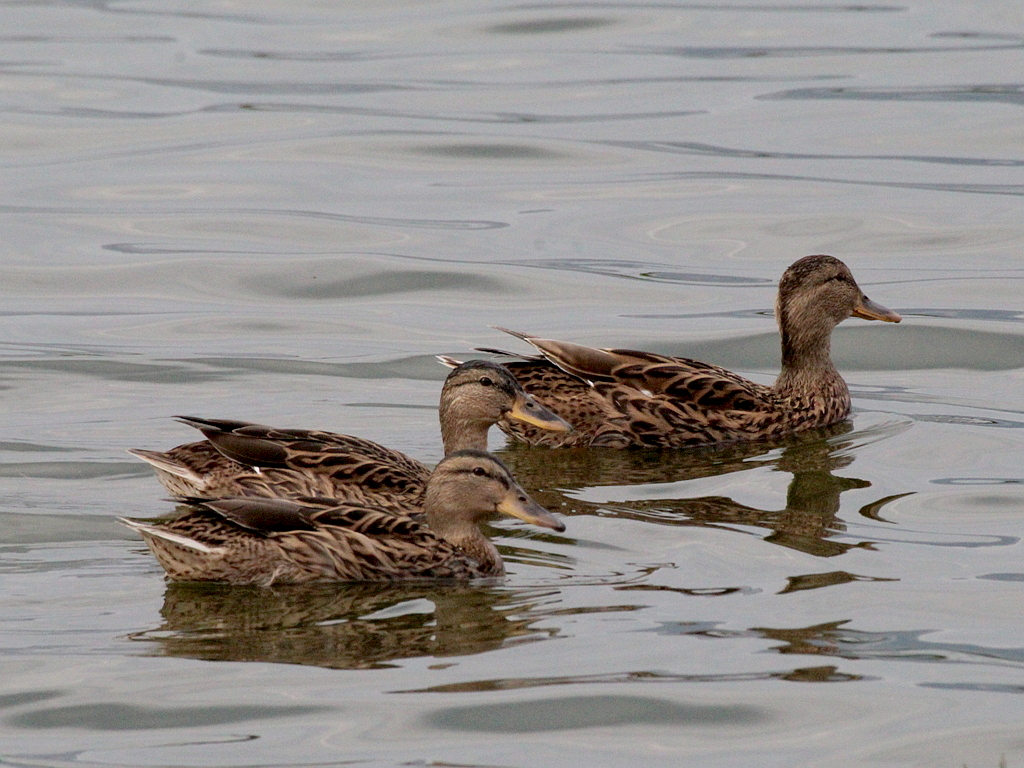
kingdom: Animalia
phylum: Chordata
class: Aves
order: Anseriformes
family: Anatidae
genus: Anas
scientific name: Anas platyrhynchos
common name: Mallard
